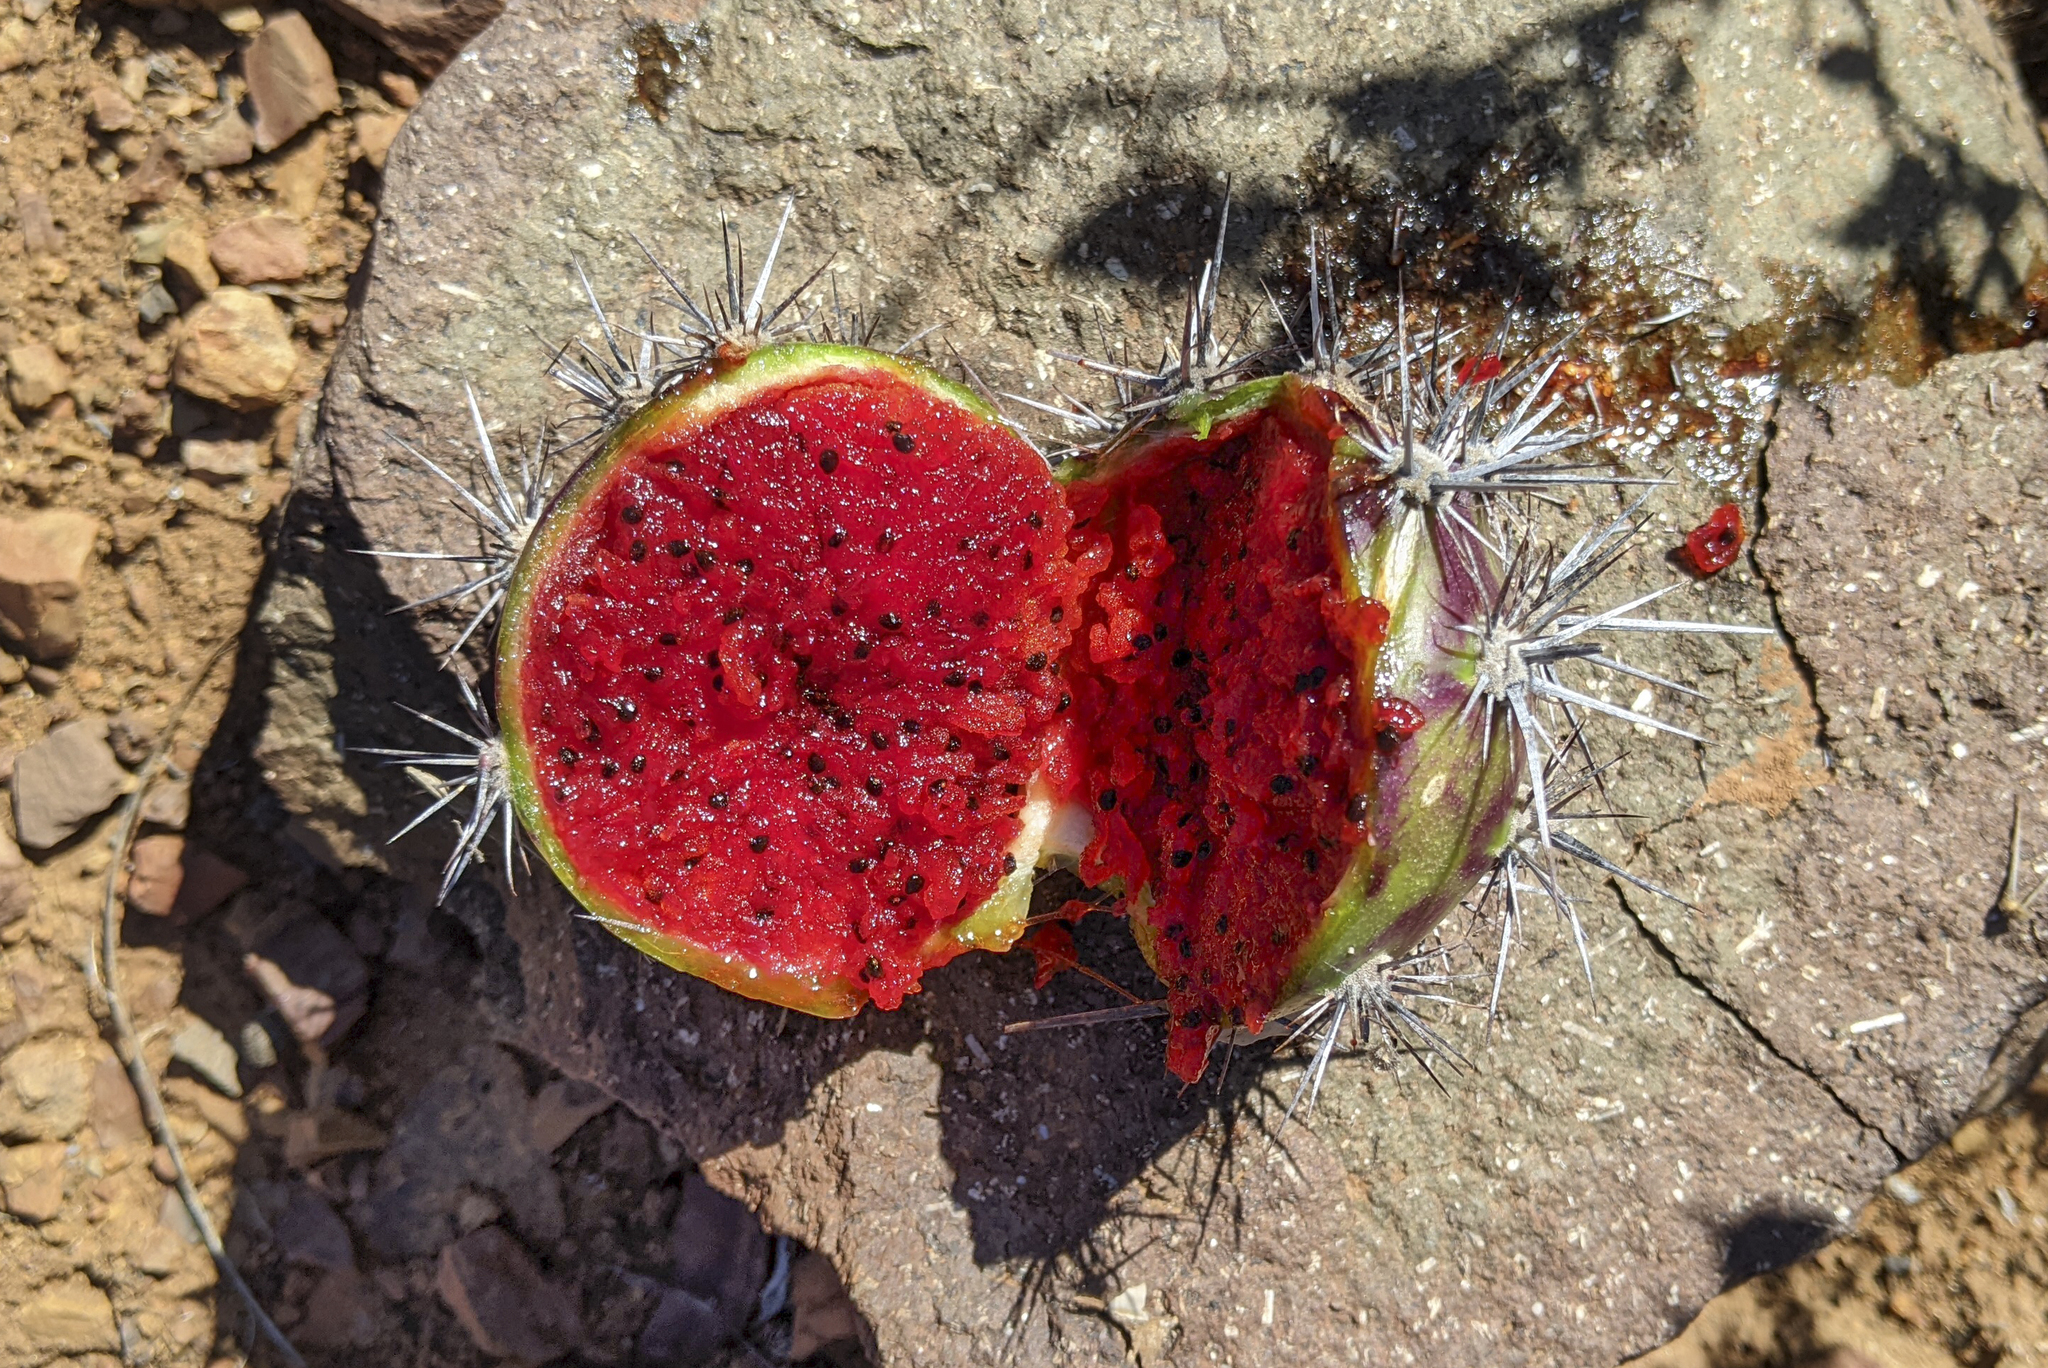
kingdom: Plantae
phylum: Tracheophyta
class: Magnoliopsida
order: Caryophyllales
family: Cactaceae
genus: Stenocereus
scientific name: Stenocereus gummosus
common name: Dagger cactus
